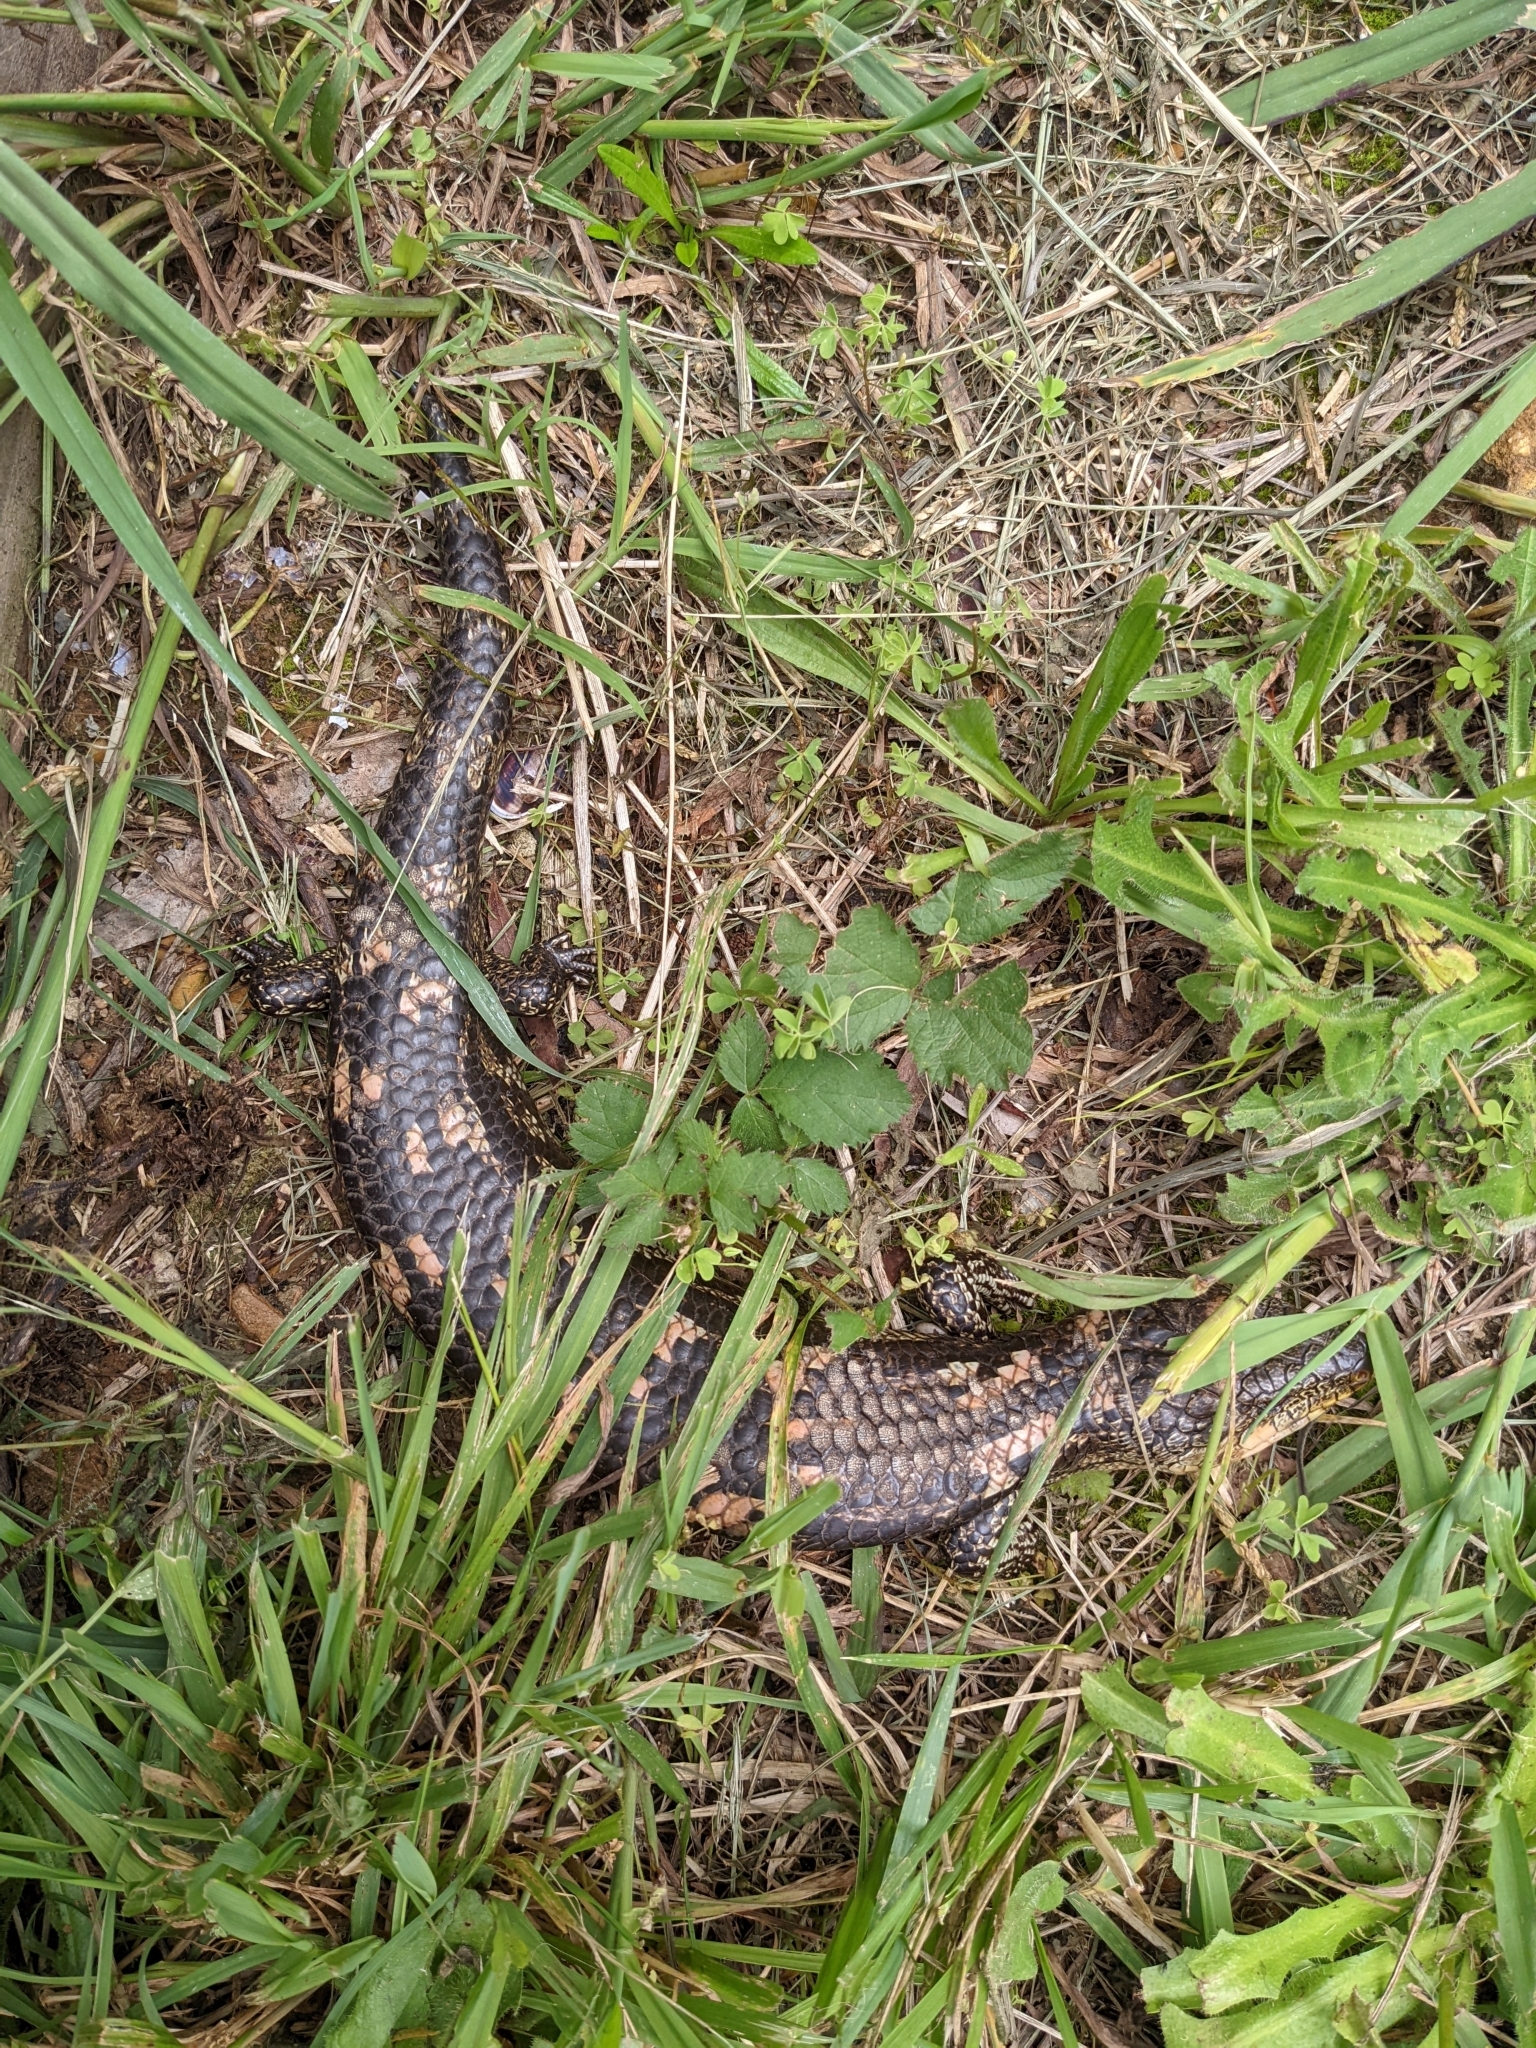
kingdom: Animalia
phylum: Chordata
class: Squamata
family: Scincidae
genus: Tiliqua
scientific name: Tiliqua nigrolutea
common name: Blotched blue-tongued lizard
